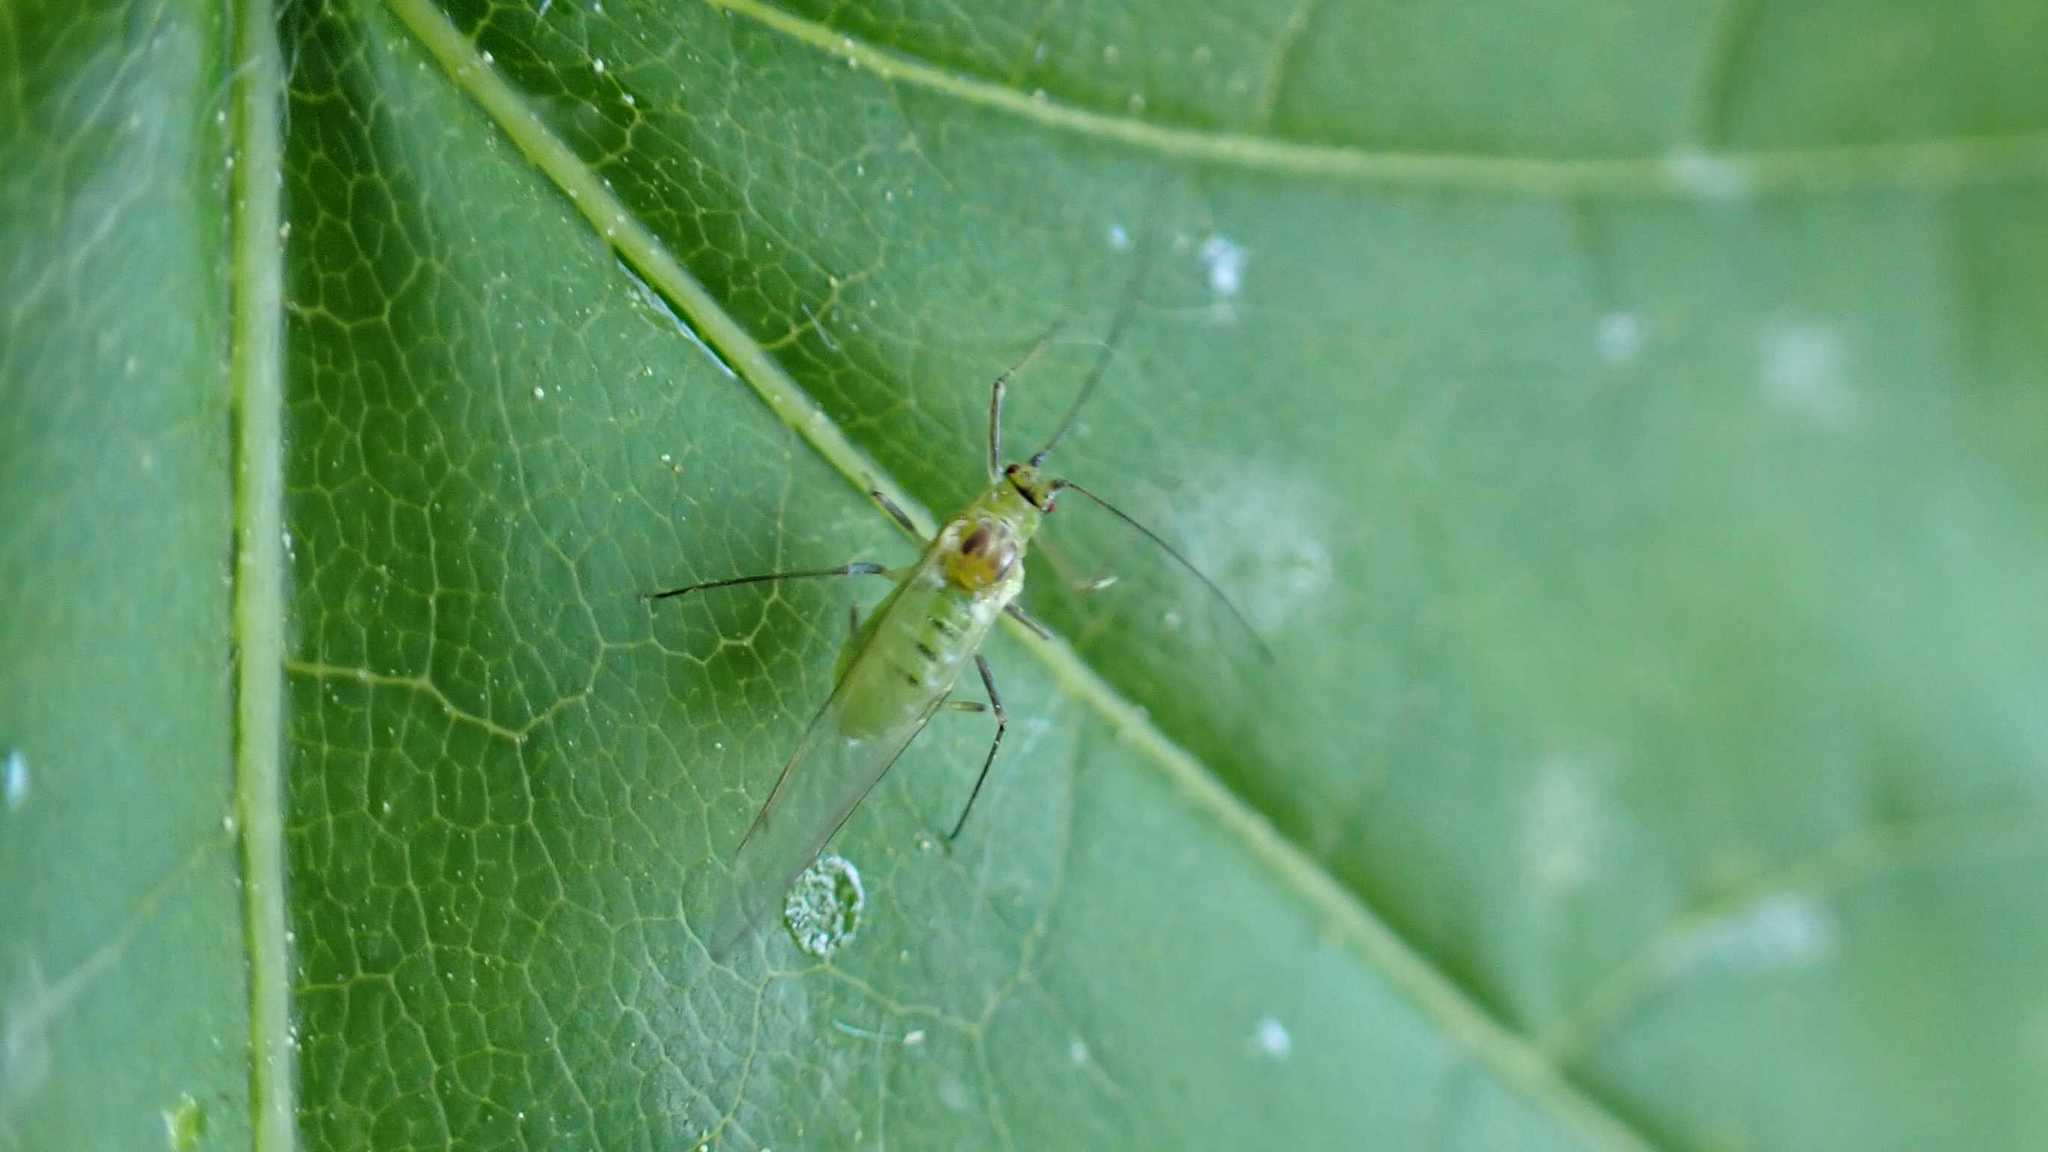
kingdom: Animalia
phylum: Arthropoda
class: Insecta
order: Hemiptera
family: Aphididae
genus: Drepanosiphum
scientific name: Drepanosiphum platanoidis
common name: Common sycamore aphid
